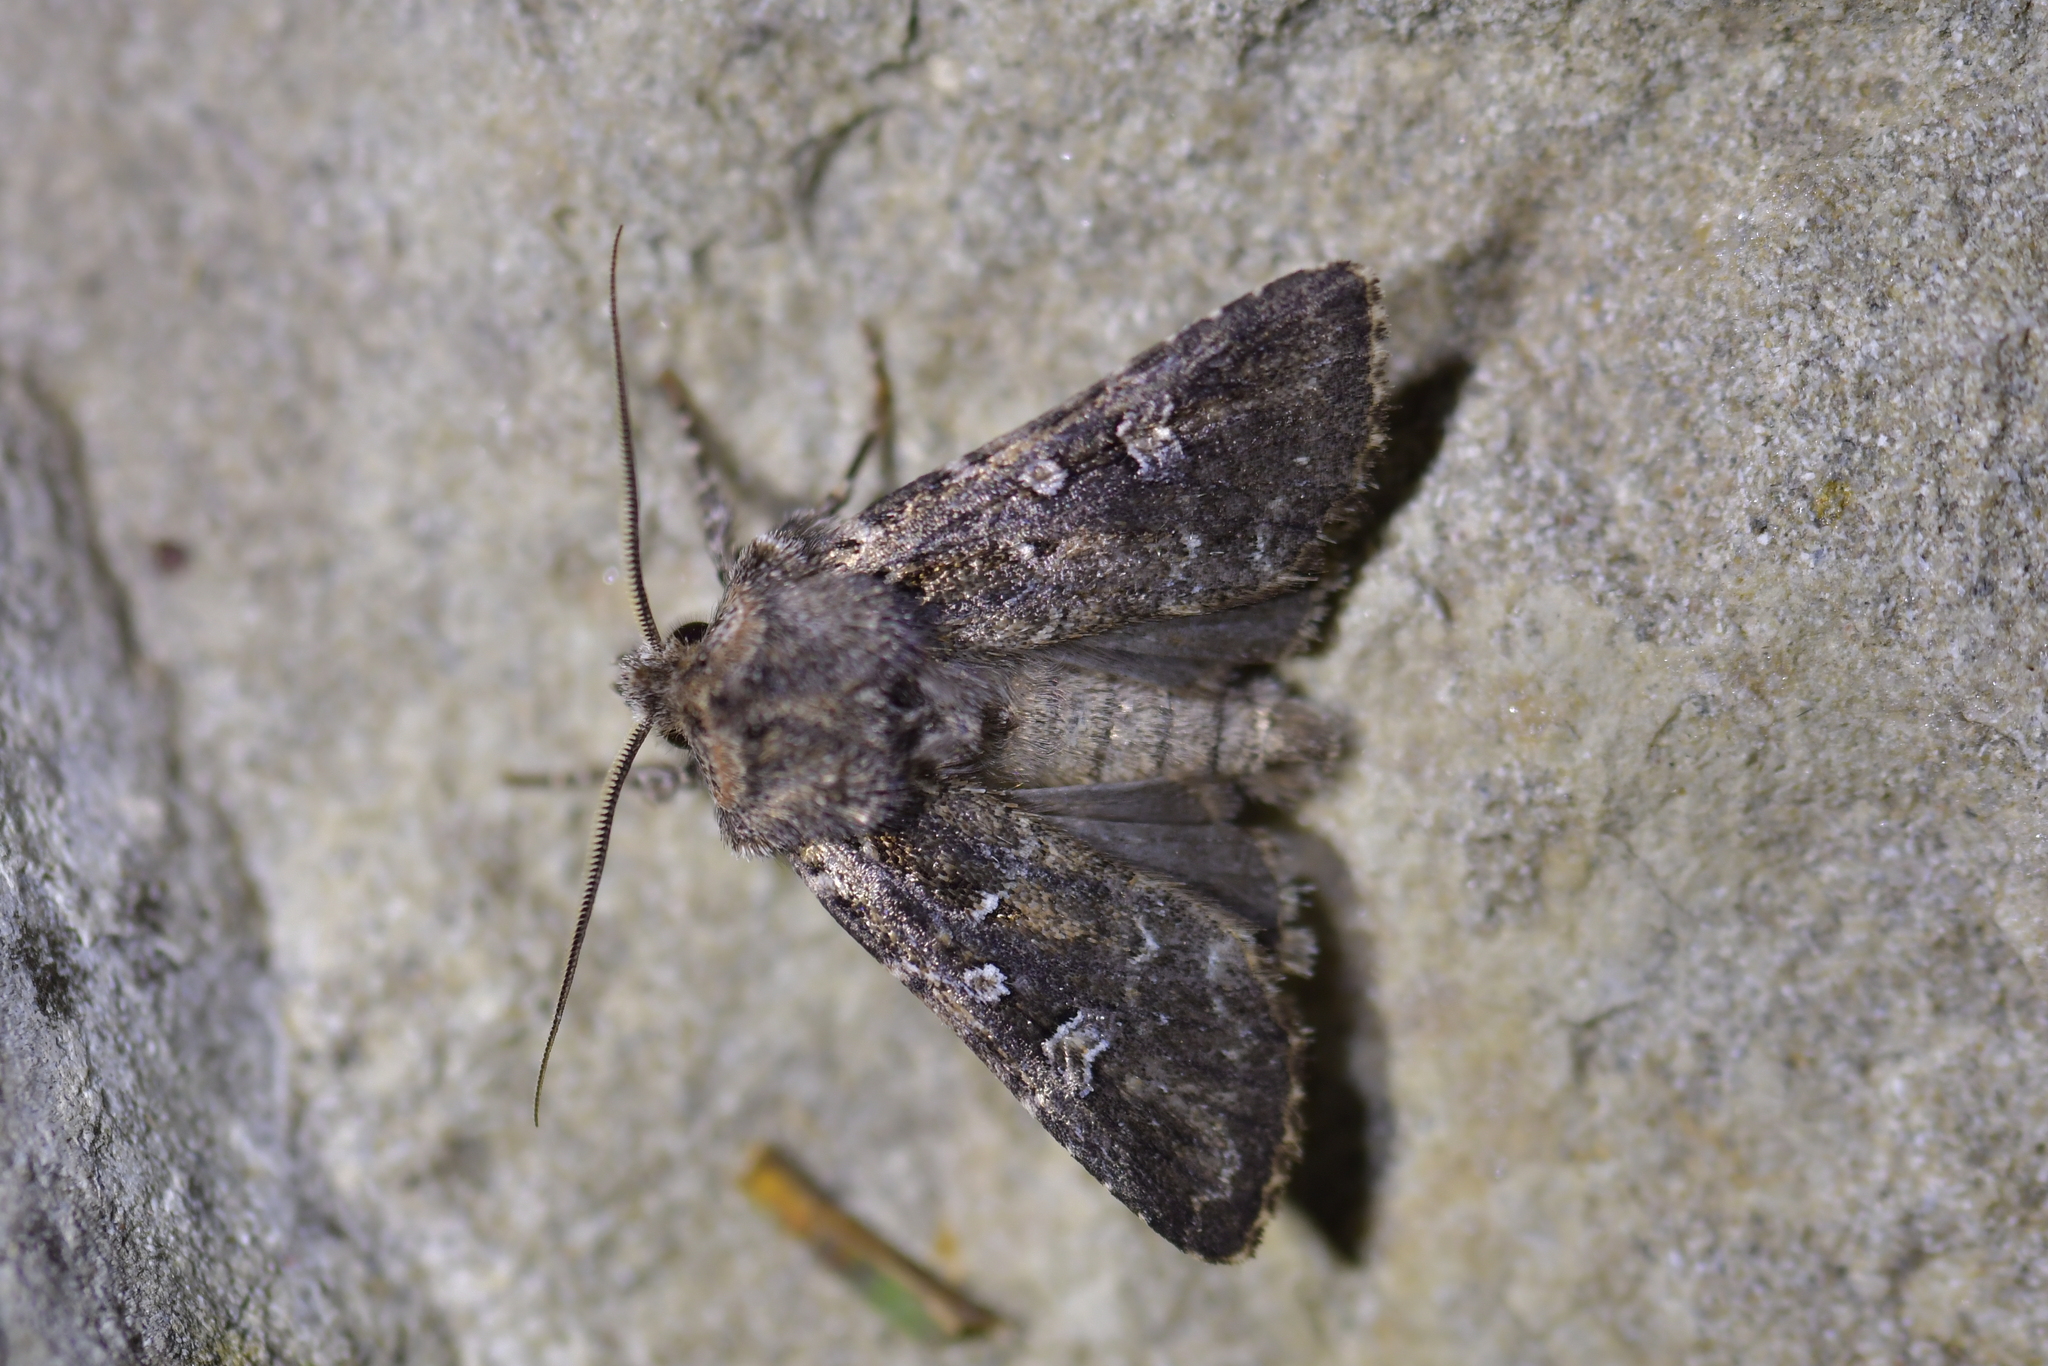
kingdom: Animalia
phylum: Arthropoda
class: Insecta
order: Lepidoptera
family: Noctuidae
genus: Ichneutica
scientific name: Ichneutica lithias
